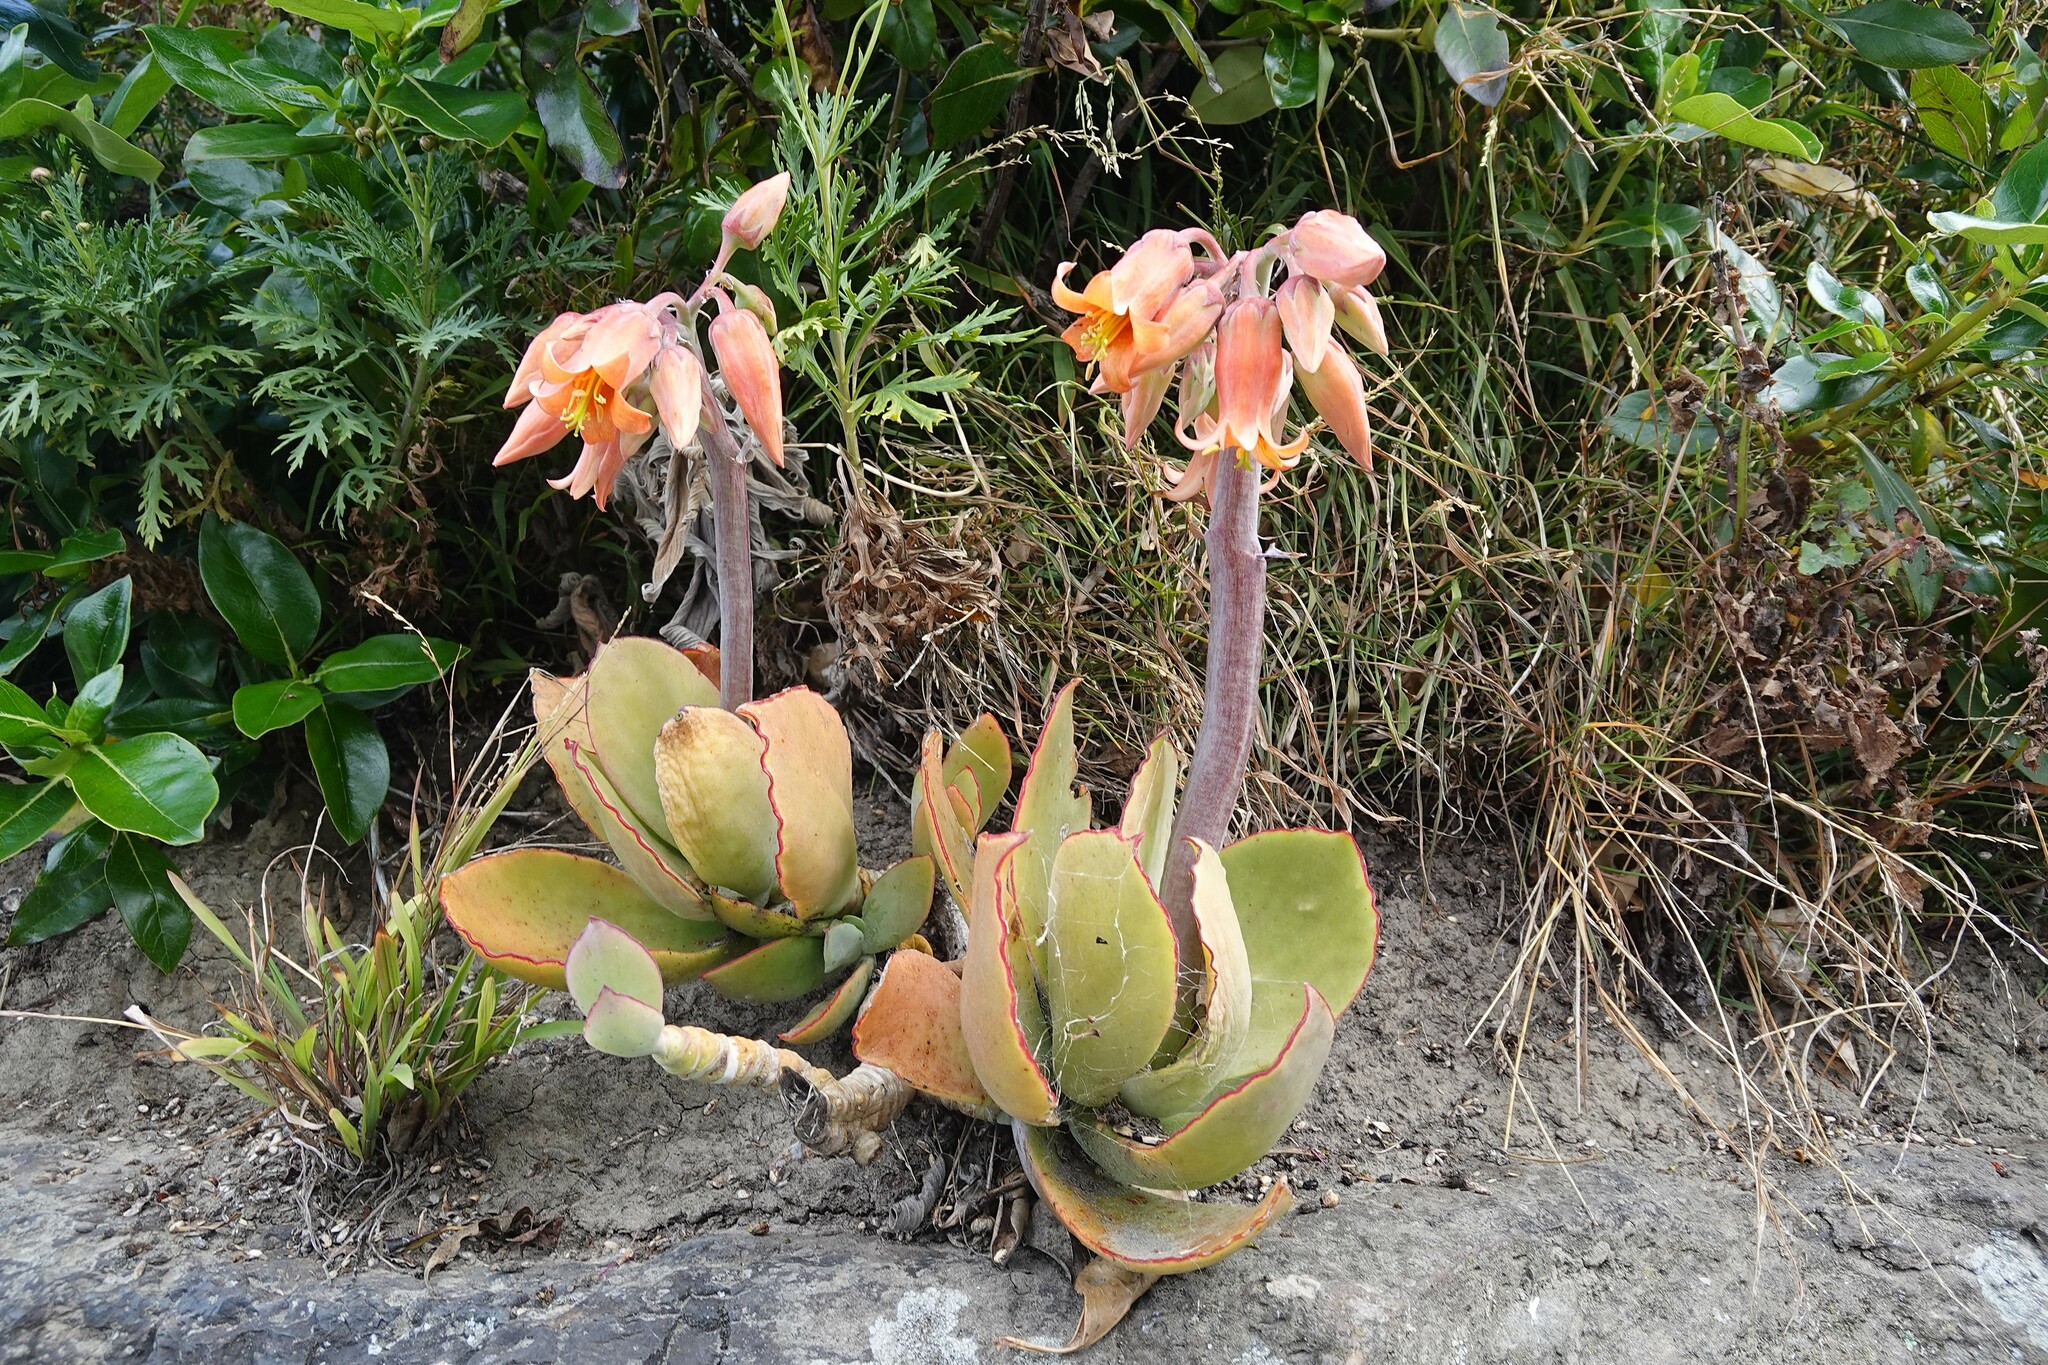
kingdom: Plantae
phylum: Tracheophyta
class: Magnoliopsida
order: Saxifragales
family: Crassulaceae
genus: Cotyledon
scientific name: Cotyledon orbiculata
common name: Pig's ear
